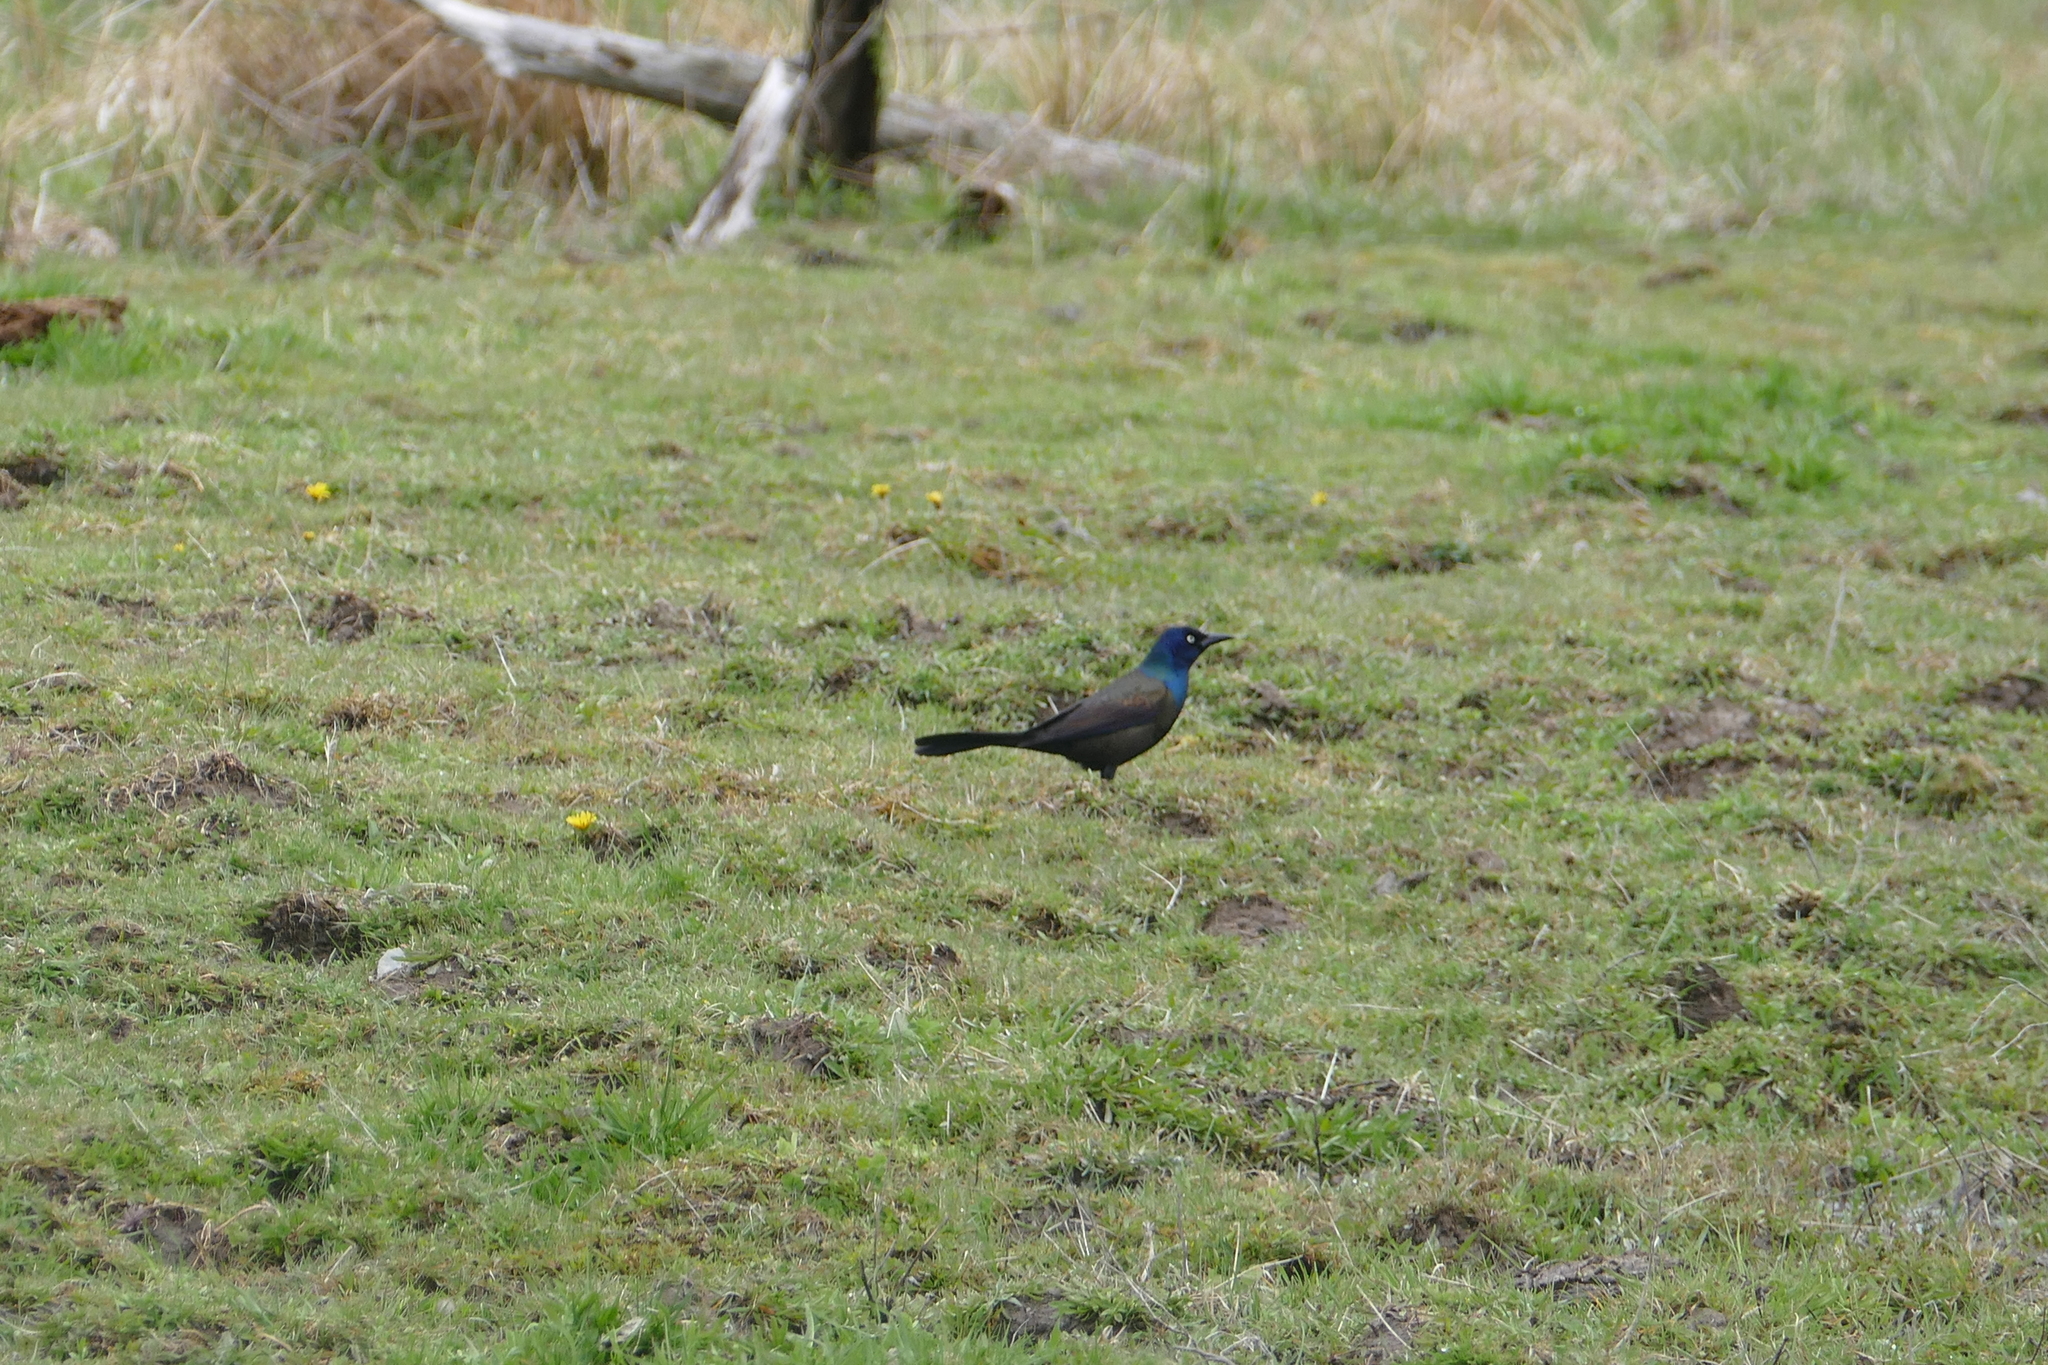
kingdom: Animalia
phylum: Chordata
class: Aves
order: Passeriformes
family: Icteridae
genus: Quiscalus
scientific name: Quiscalus quiscula
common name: Common grackle
